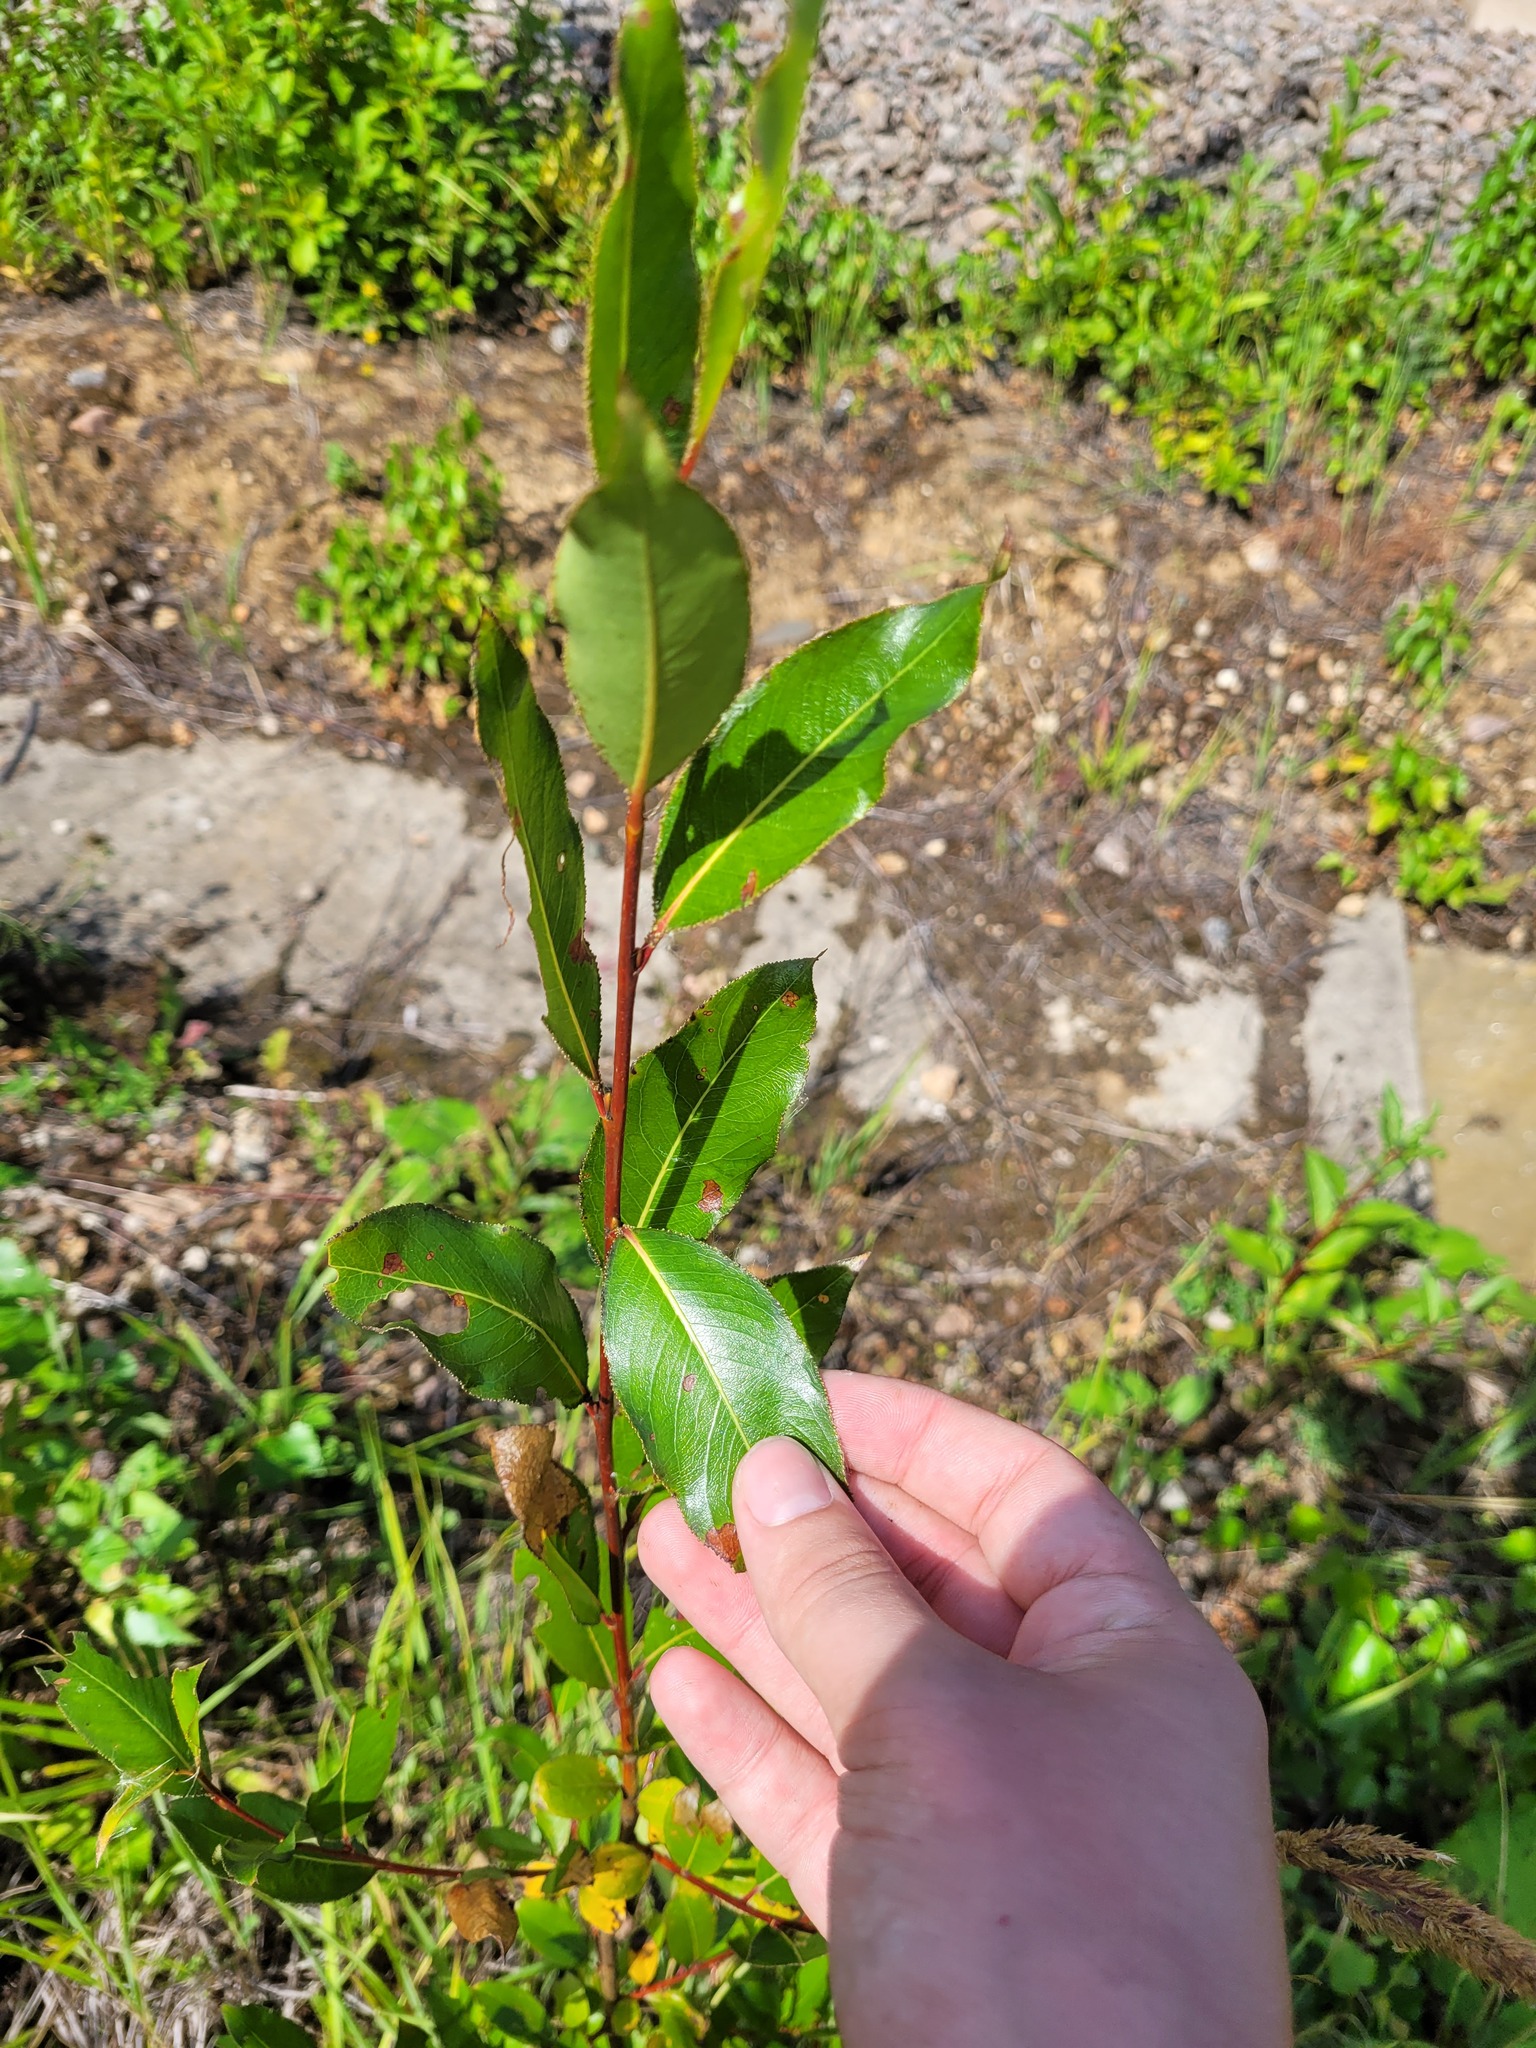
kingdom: Plantae
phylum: Tracheophyta
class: Magnoliopsida
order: Malpighiales
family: Salicaceae
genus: Salix
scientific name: Salix pentandra
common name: Bay willow
